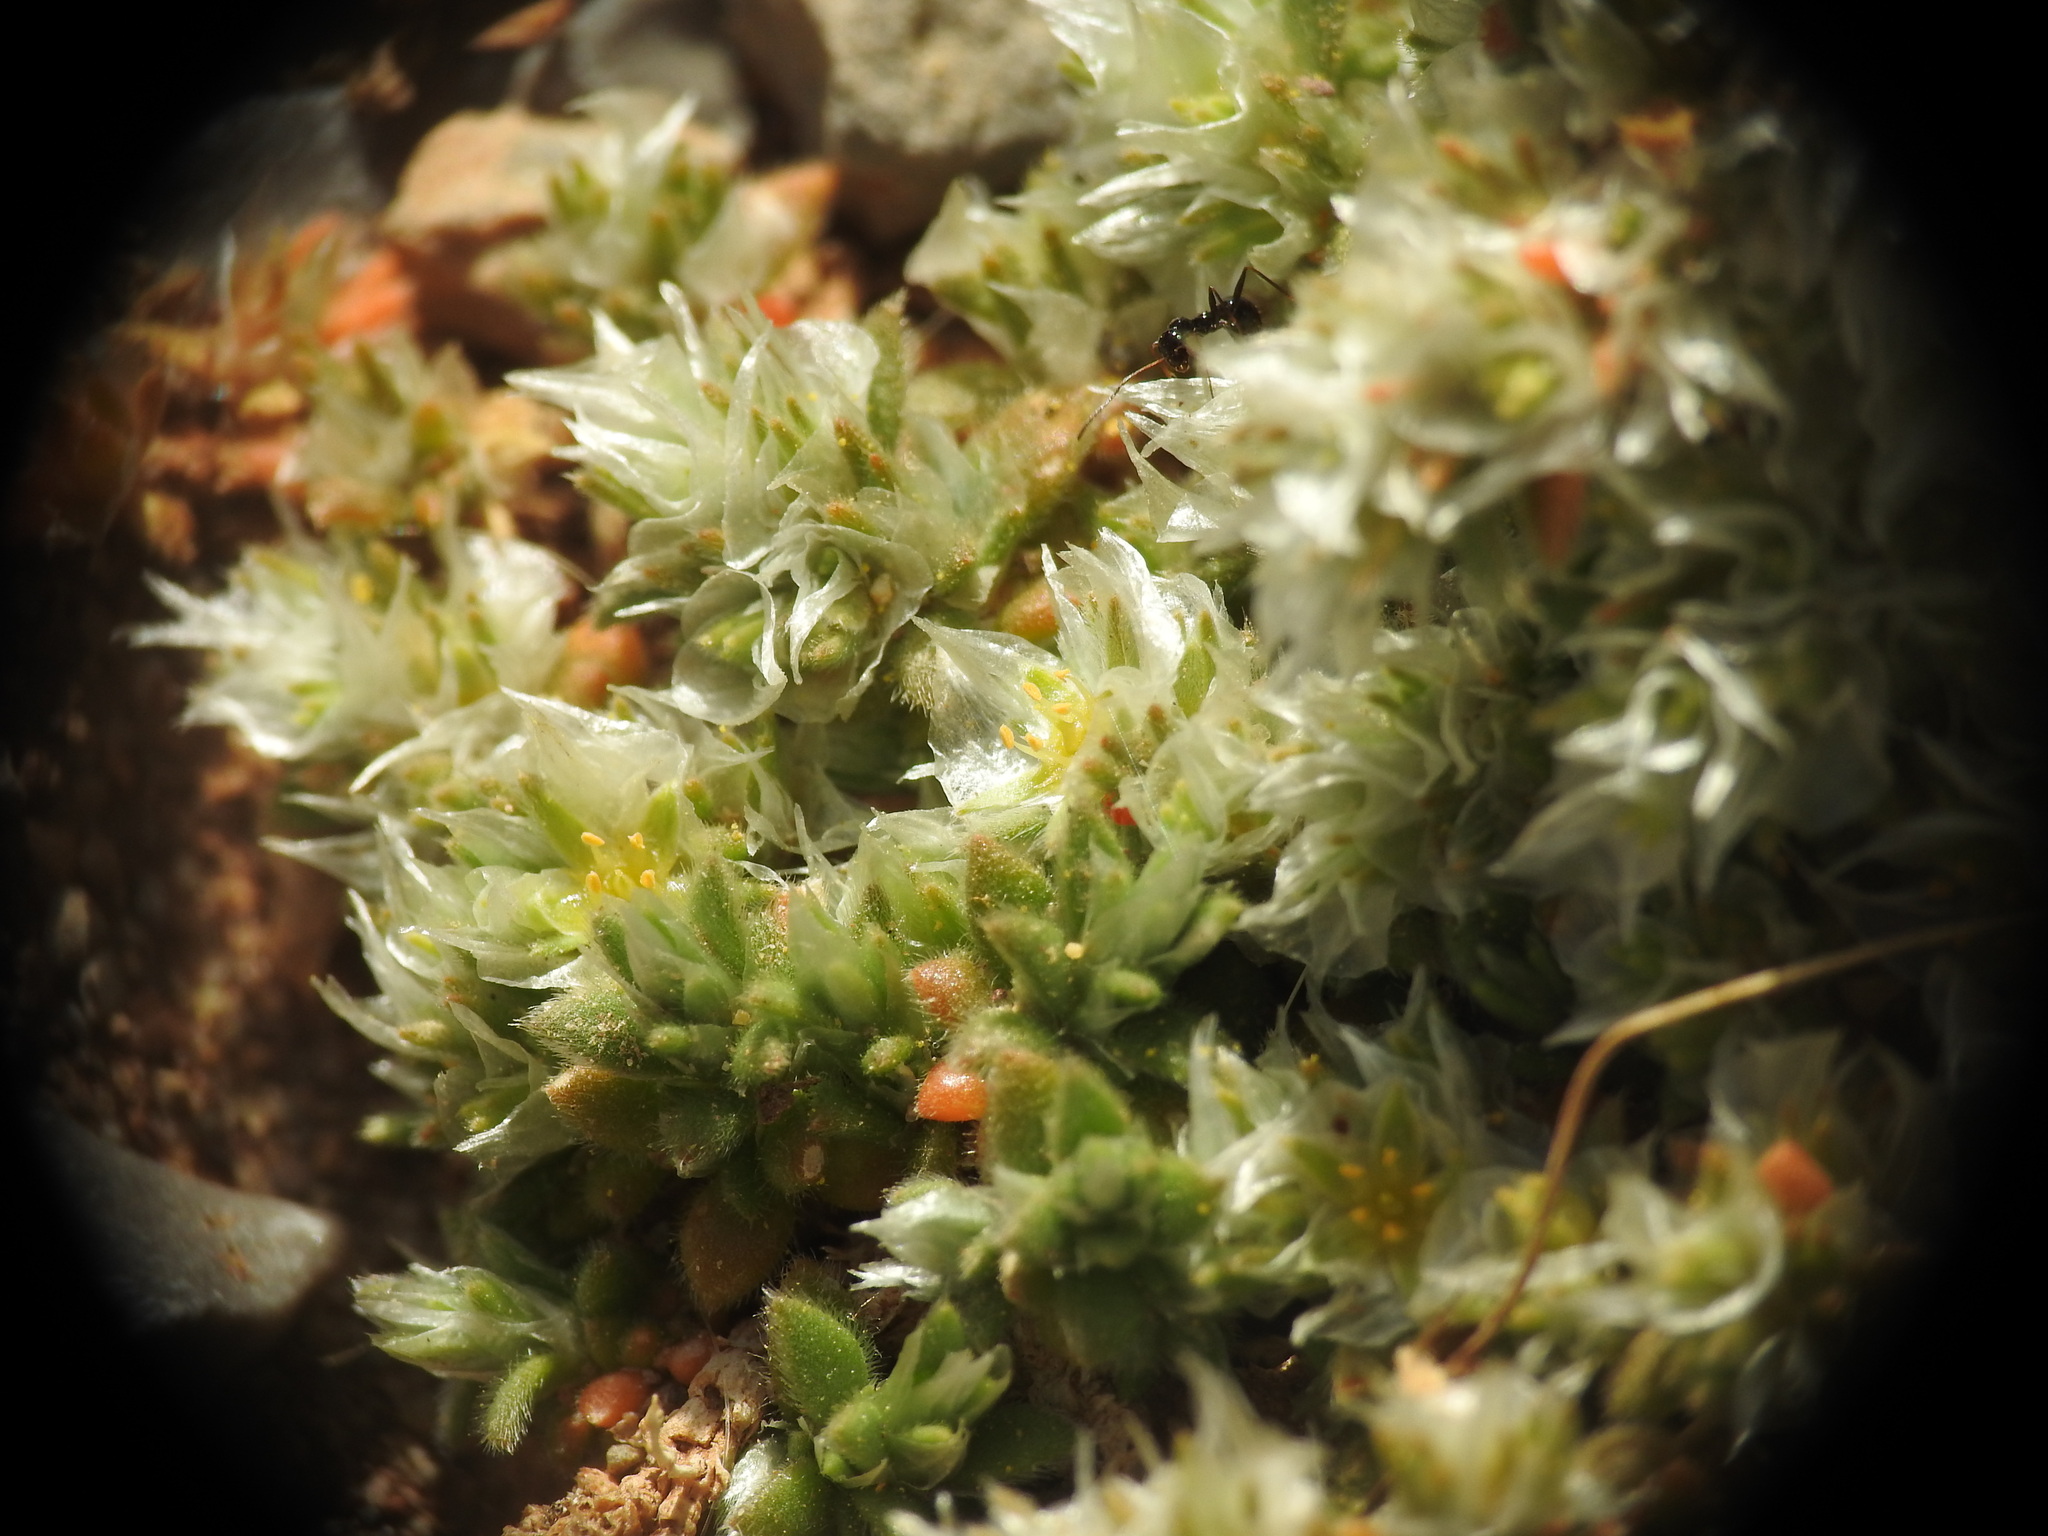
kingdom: Plantae
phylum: Tracheophyta
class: Magnoliopsida
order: Caryophyllales
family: Caryophyllaceae
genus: Paronychia
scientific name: Paronychia macrosepala
